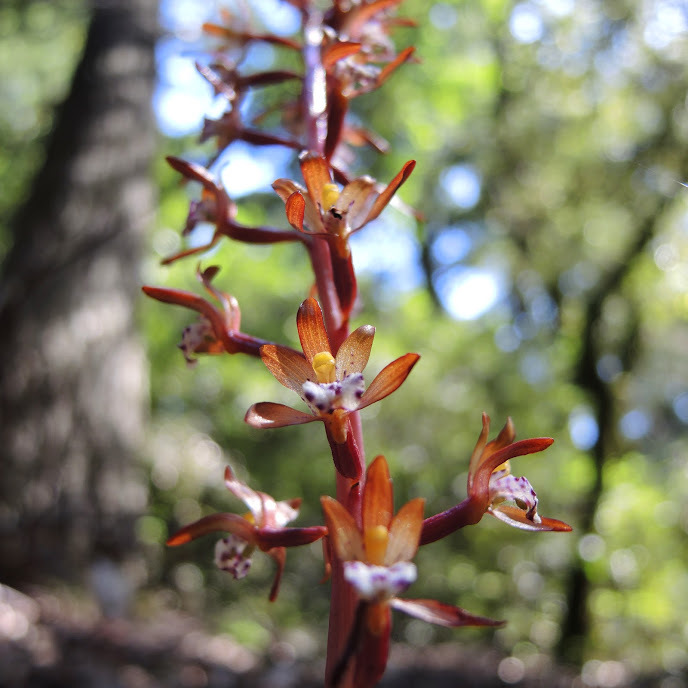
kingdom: Plantae
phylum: Tracheophyta
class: Liliopsida
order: Asparagales
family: Orchidaceae
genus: Corallorhiza
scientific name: Corallorhiza maculata
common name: Spotted coralroot
